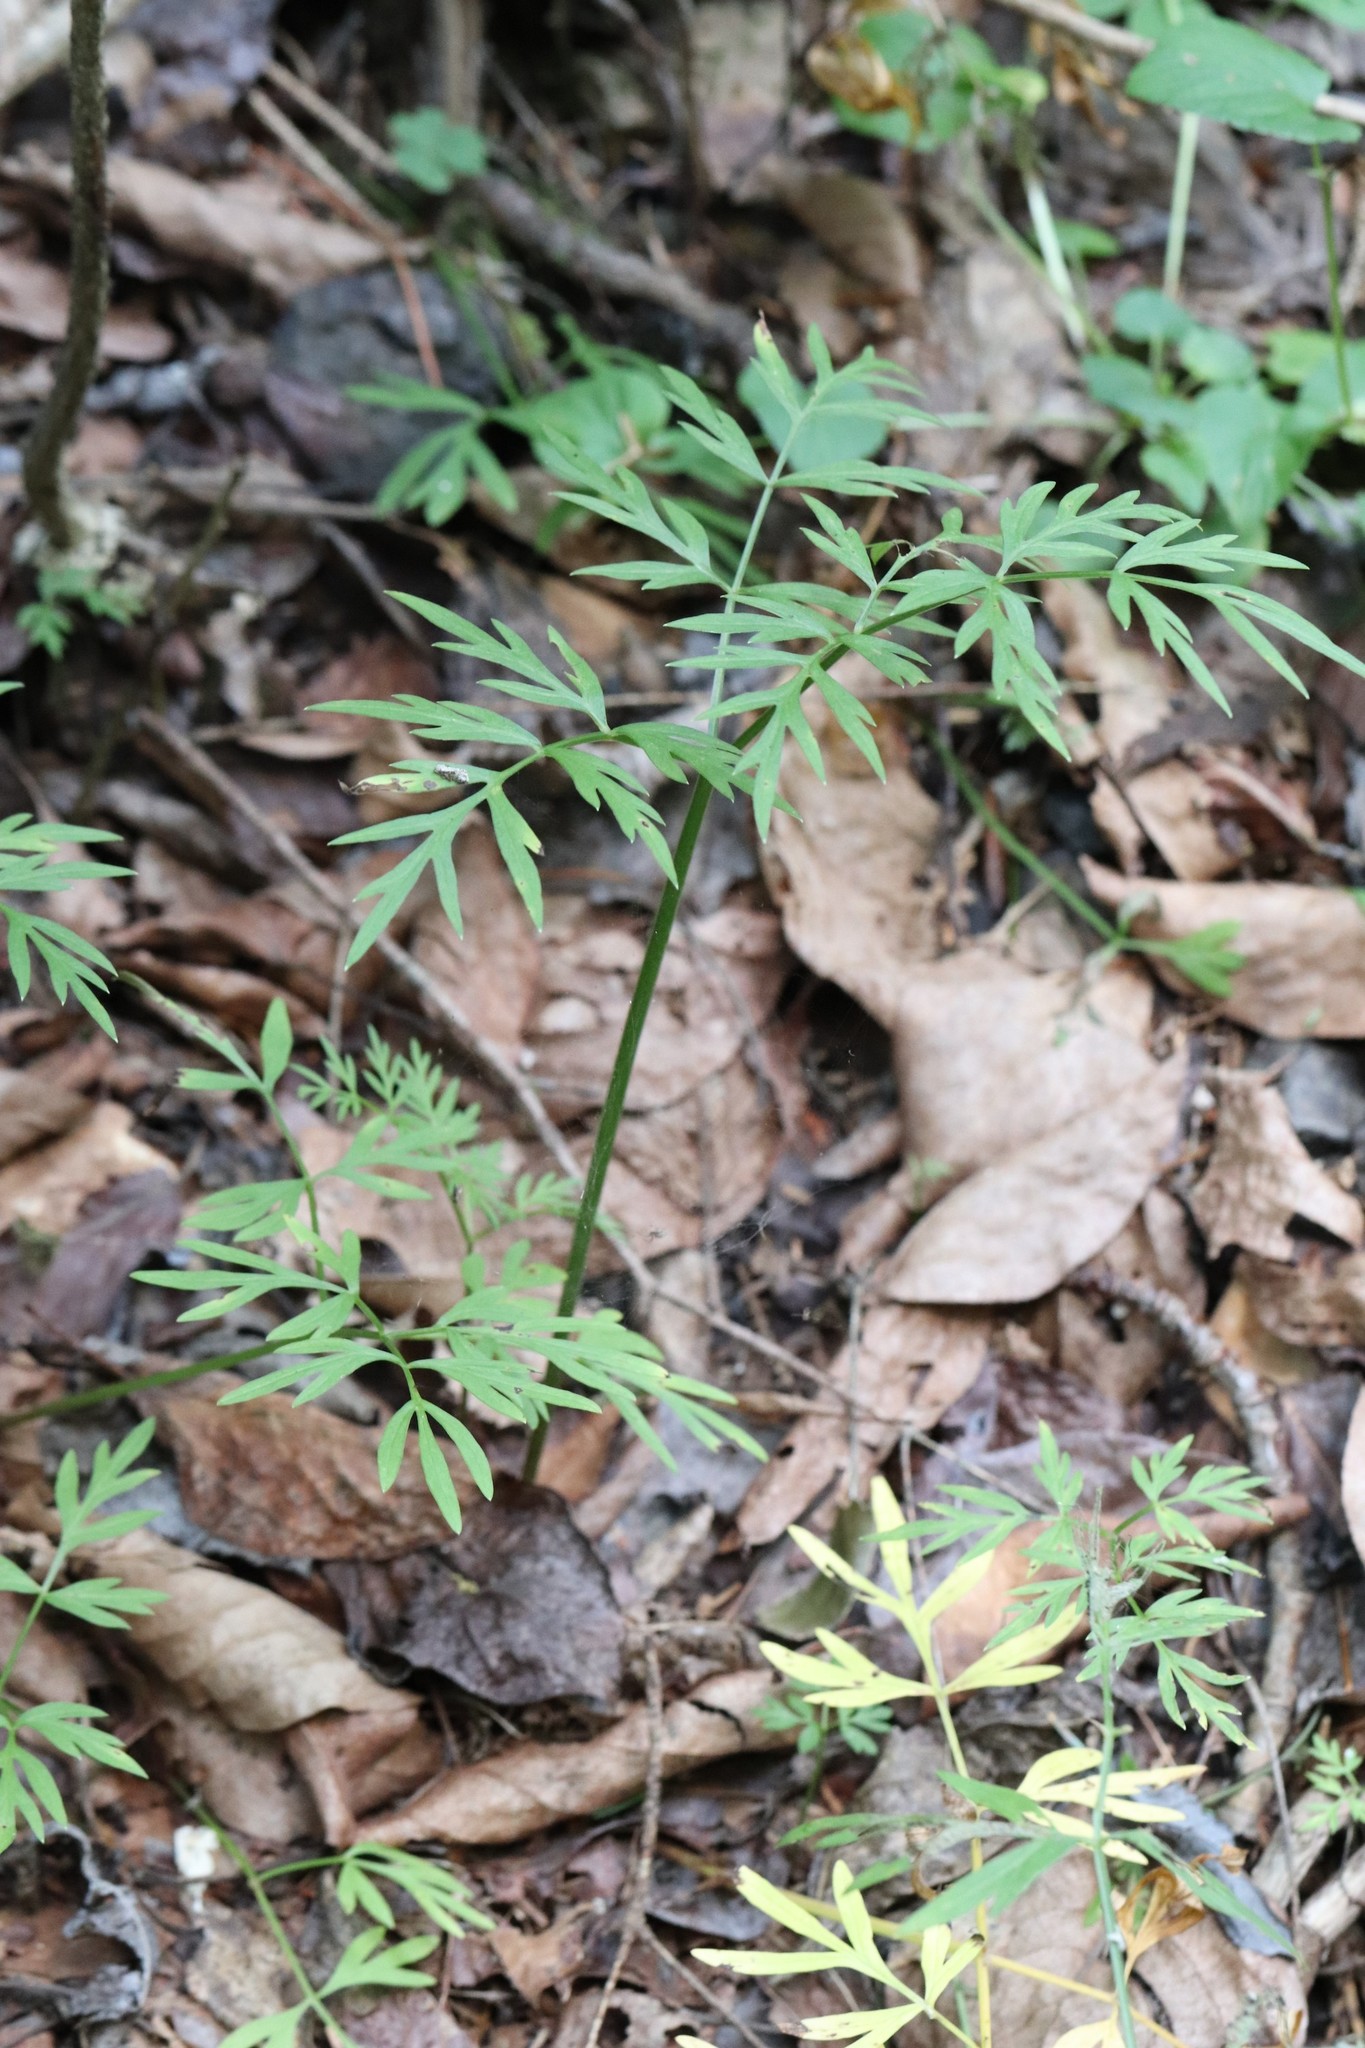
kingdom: Plantae
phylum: Tracheophyta
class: Magnoliopsida
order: Apiales
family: Apiaceae
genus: Ostericum
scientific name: Ostericum maximowiczii
